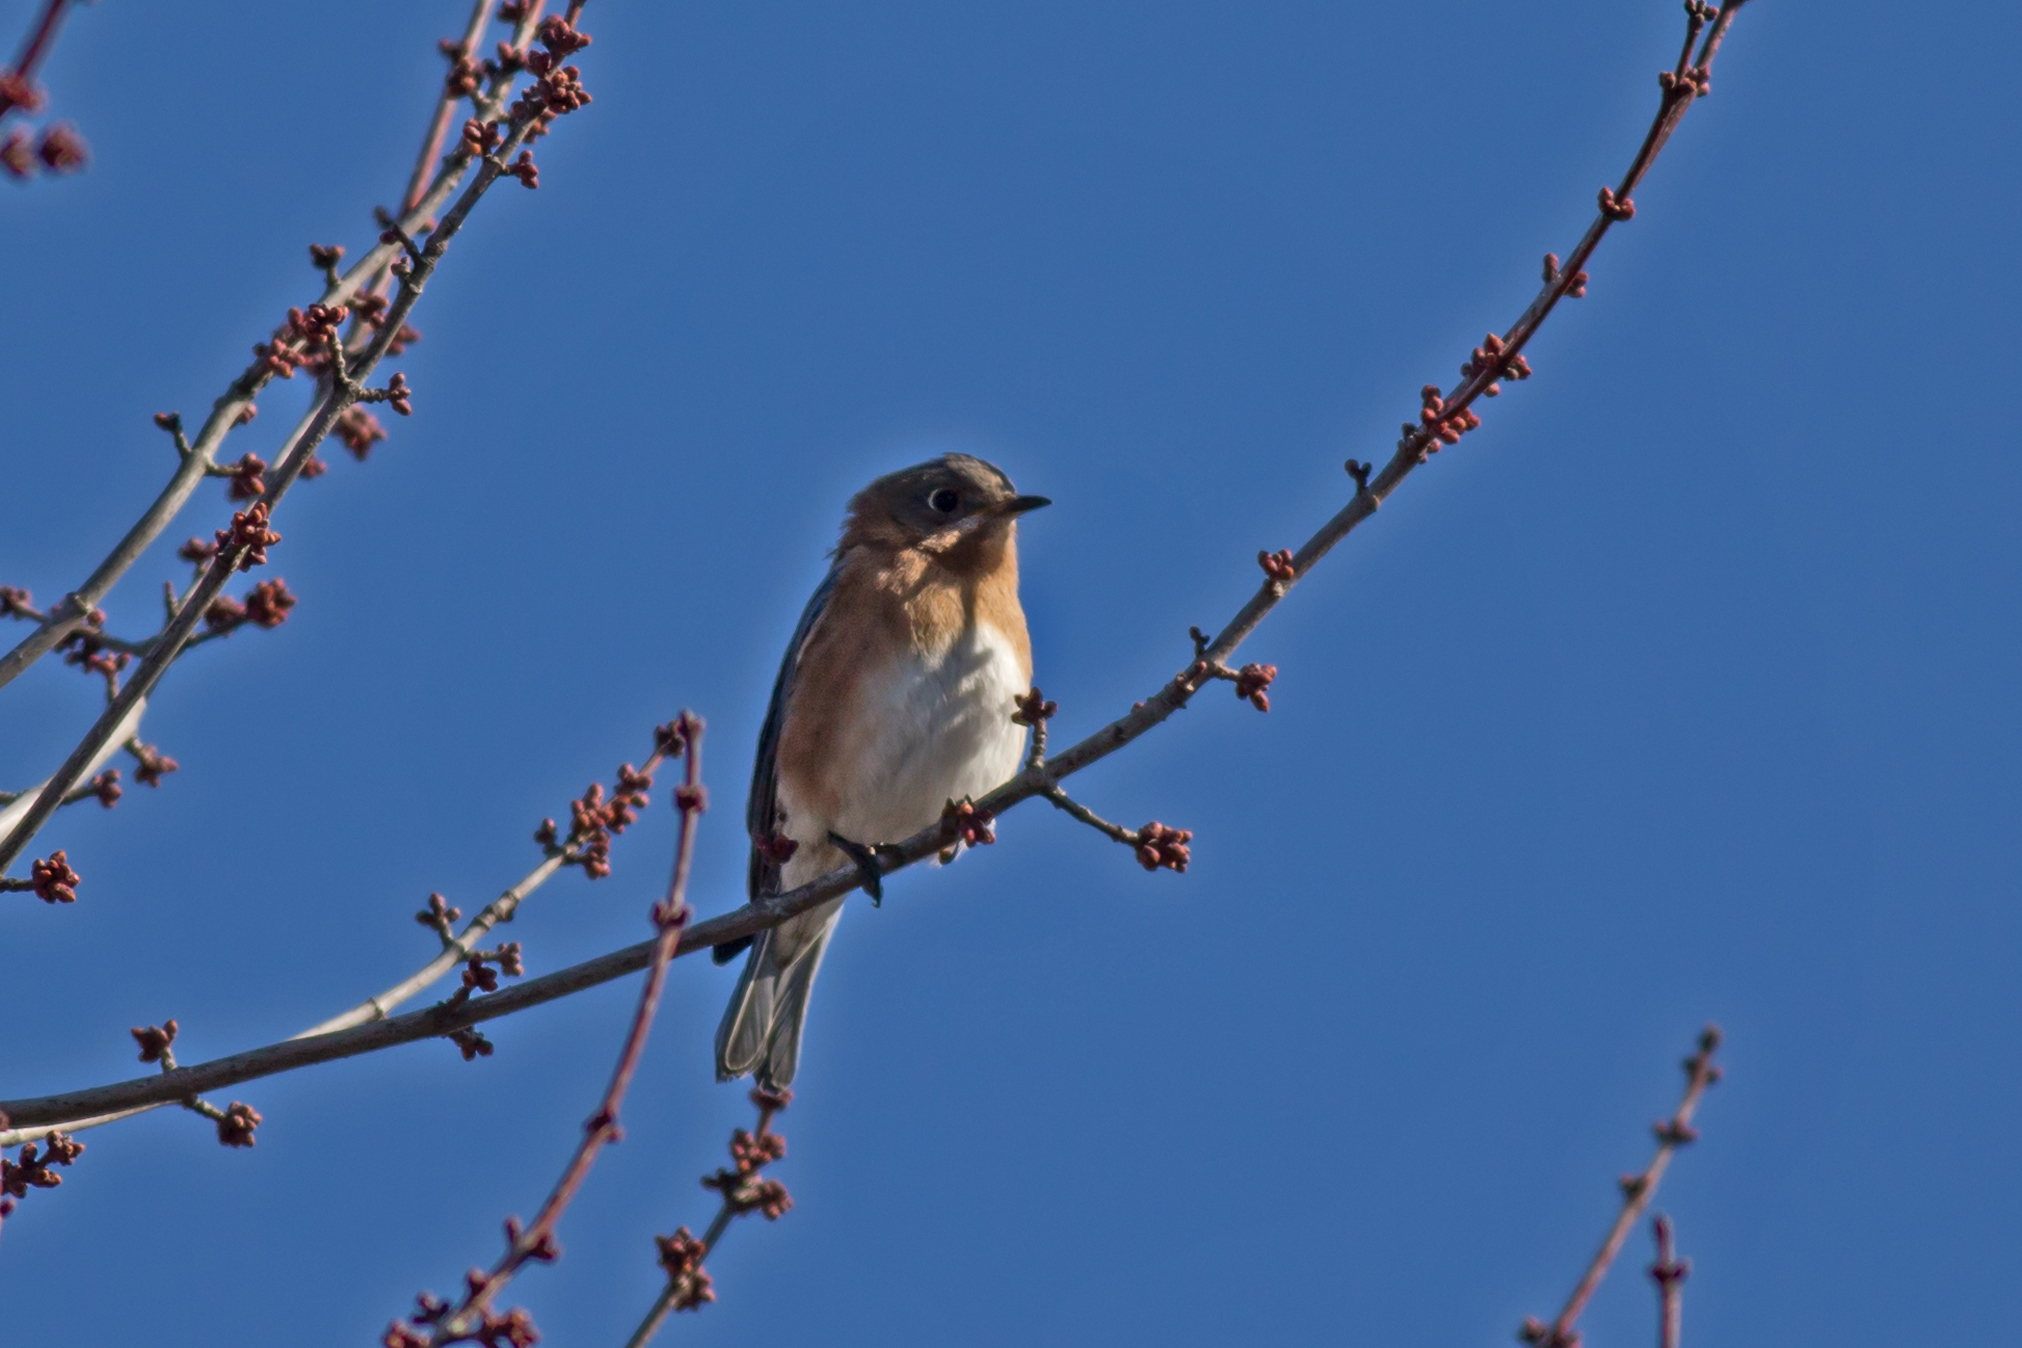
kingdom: Animalia
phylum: Chordata
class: Aves
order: Passeriformes
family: Turdidae
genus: Sialia
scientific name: Sialia sialis
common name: Eastern bluebird
